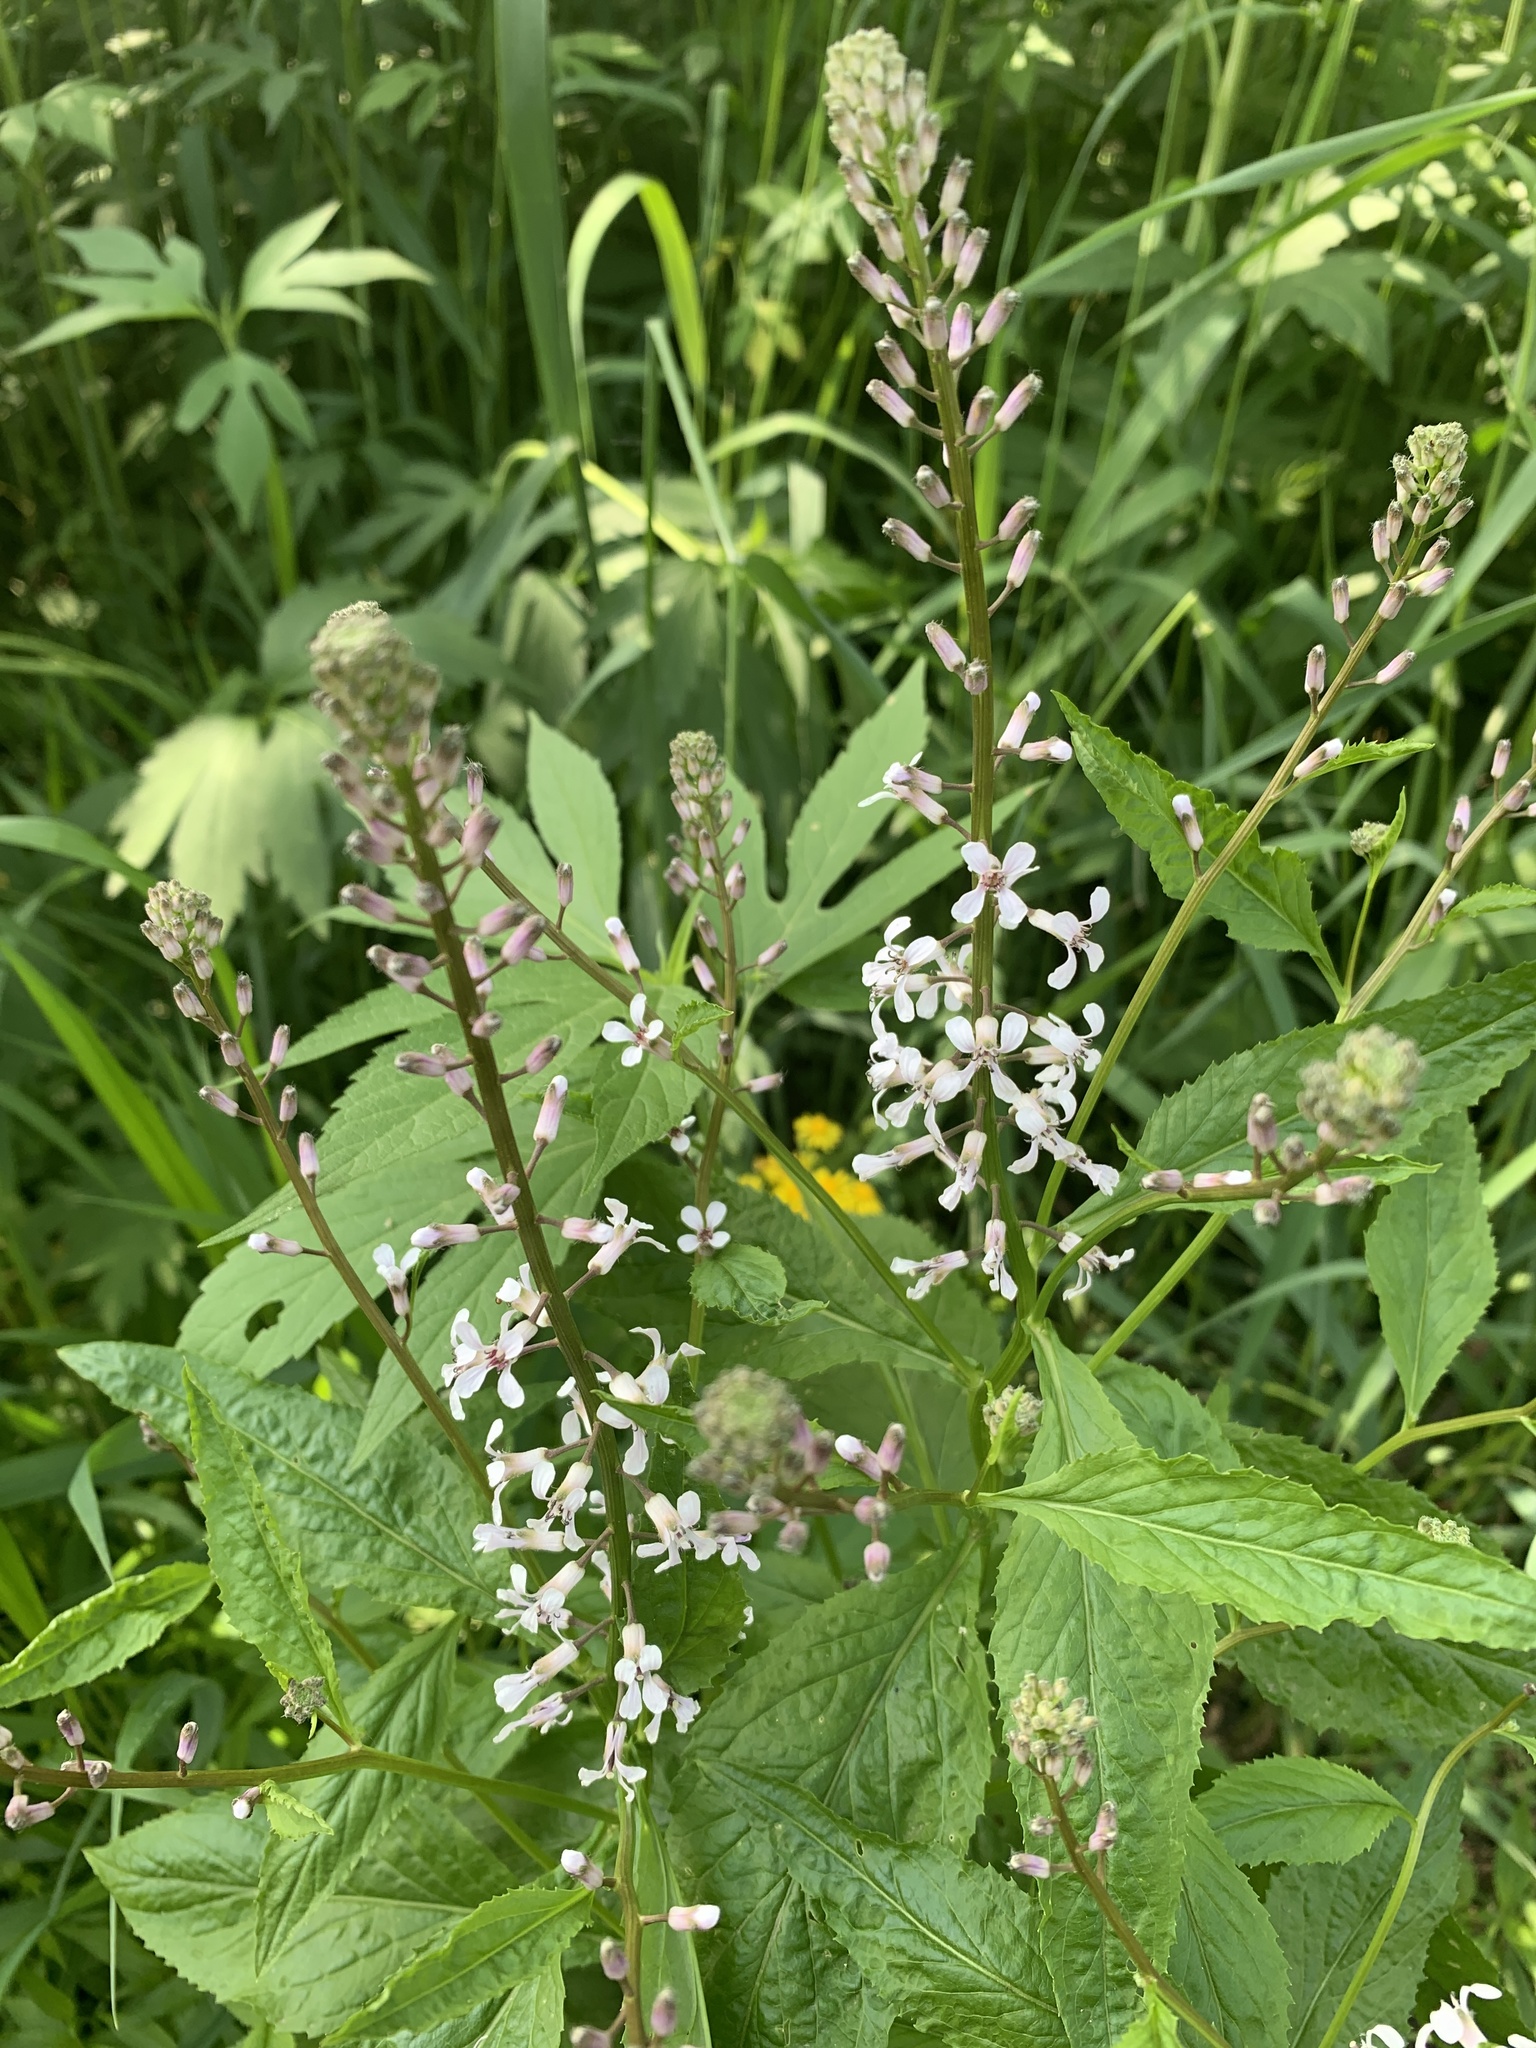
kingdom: Plantae
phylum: Tracheophyta
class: Magnoliopsida
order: Brassicales
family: Brassicaceae
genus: Iodanthus
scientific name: Iodanthus pinnatifidus
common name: Violet rocket
